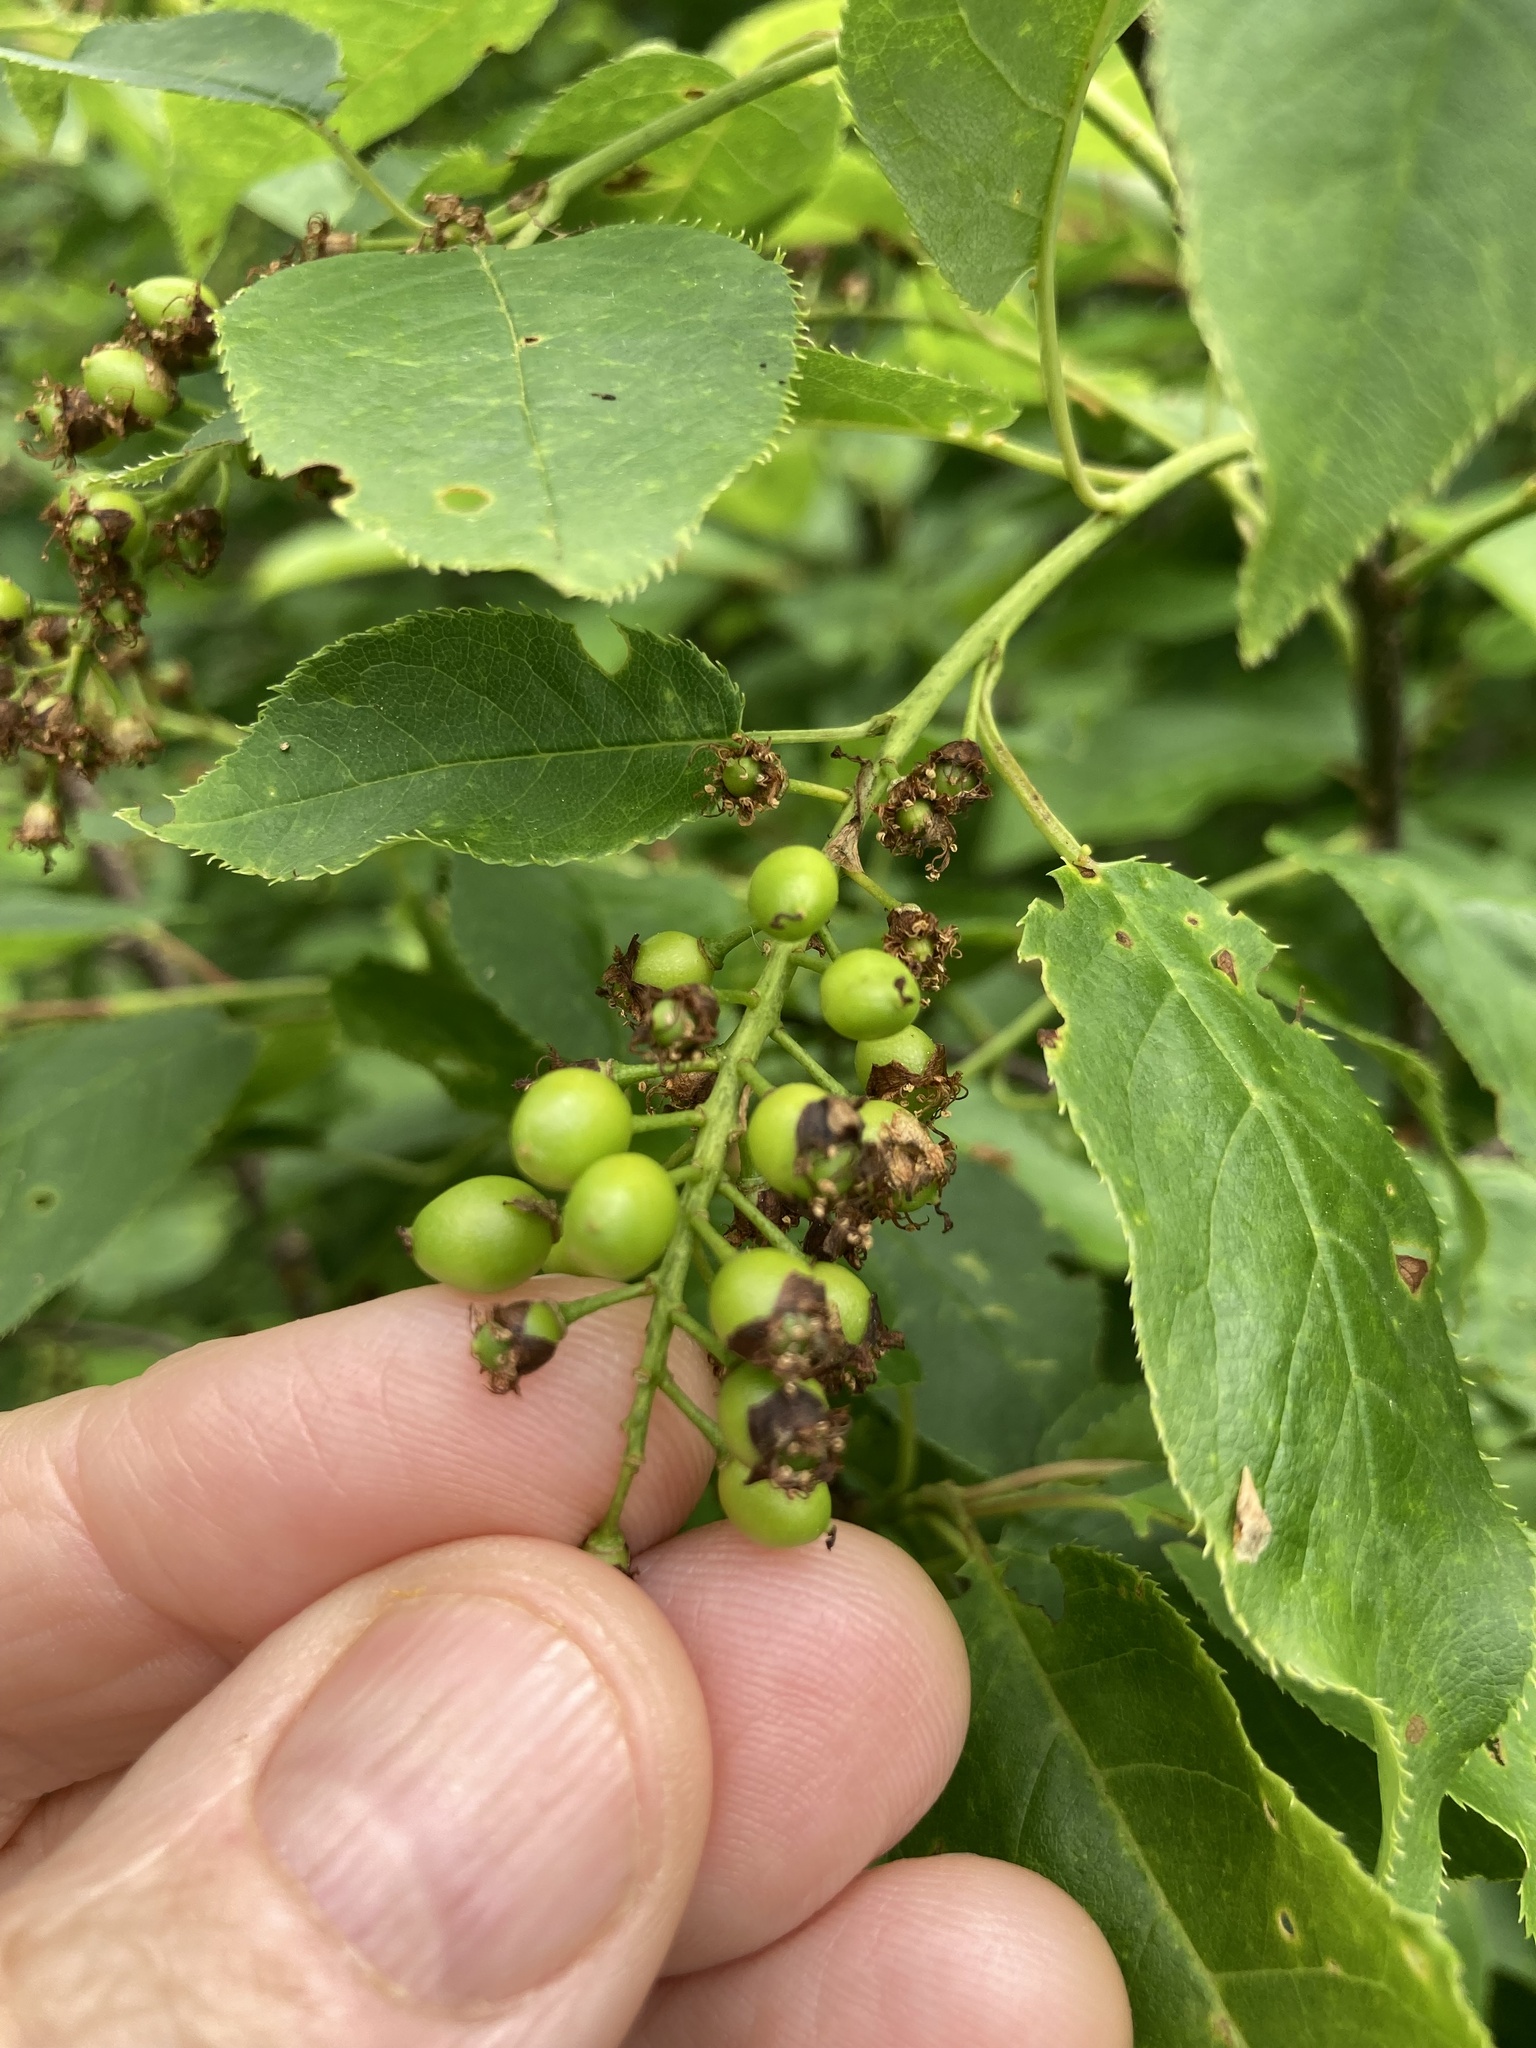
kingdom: Plantae
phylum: Tracheophyta
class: Magnoliopsida
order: Rosales
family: Rosaceae
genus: Prunus
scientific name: Prunus virginiana
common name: Chokecherry
